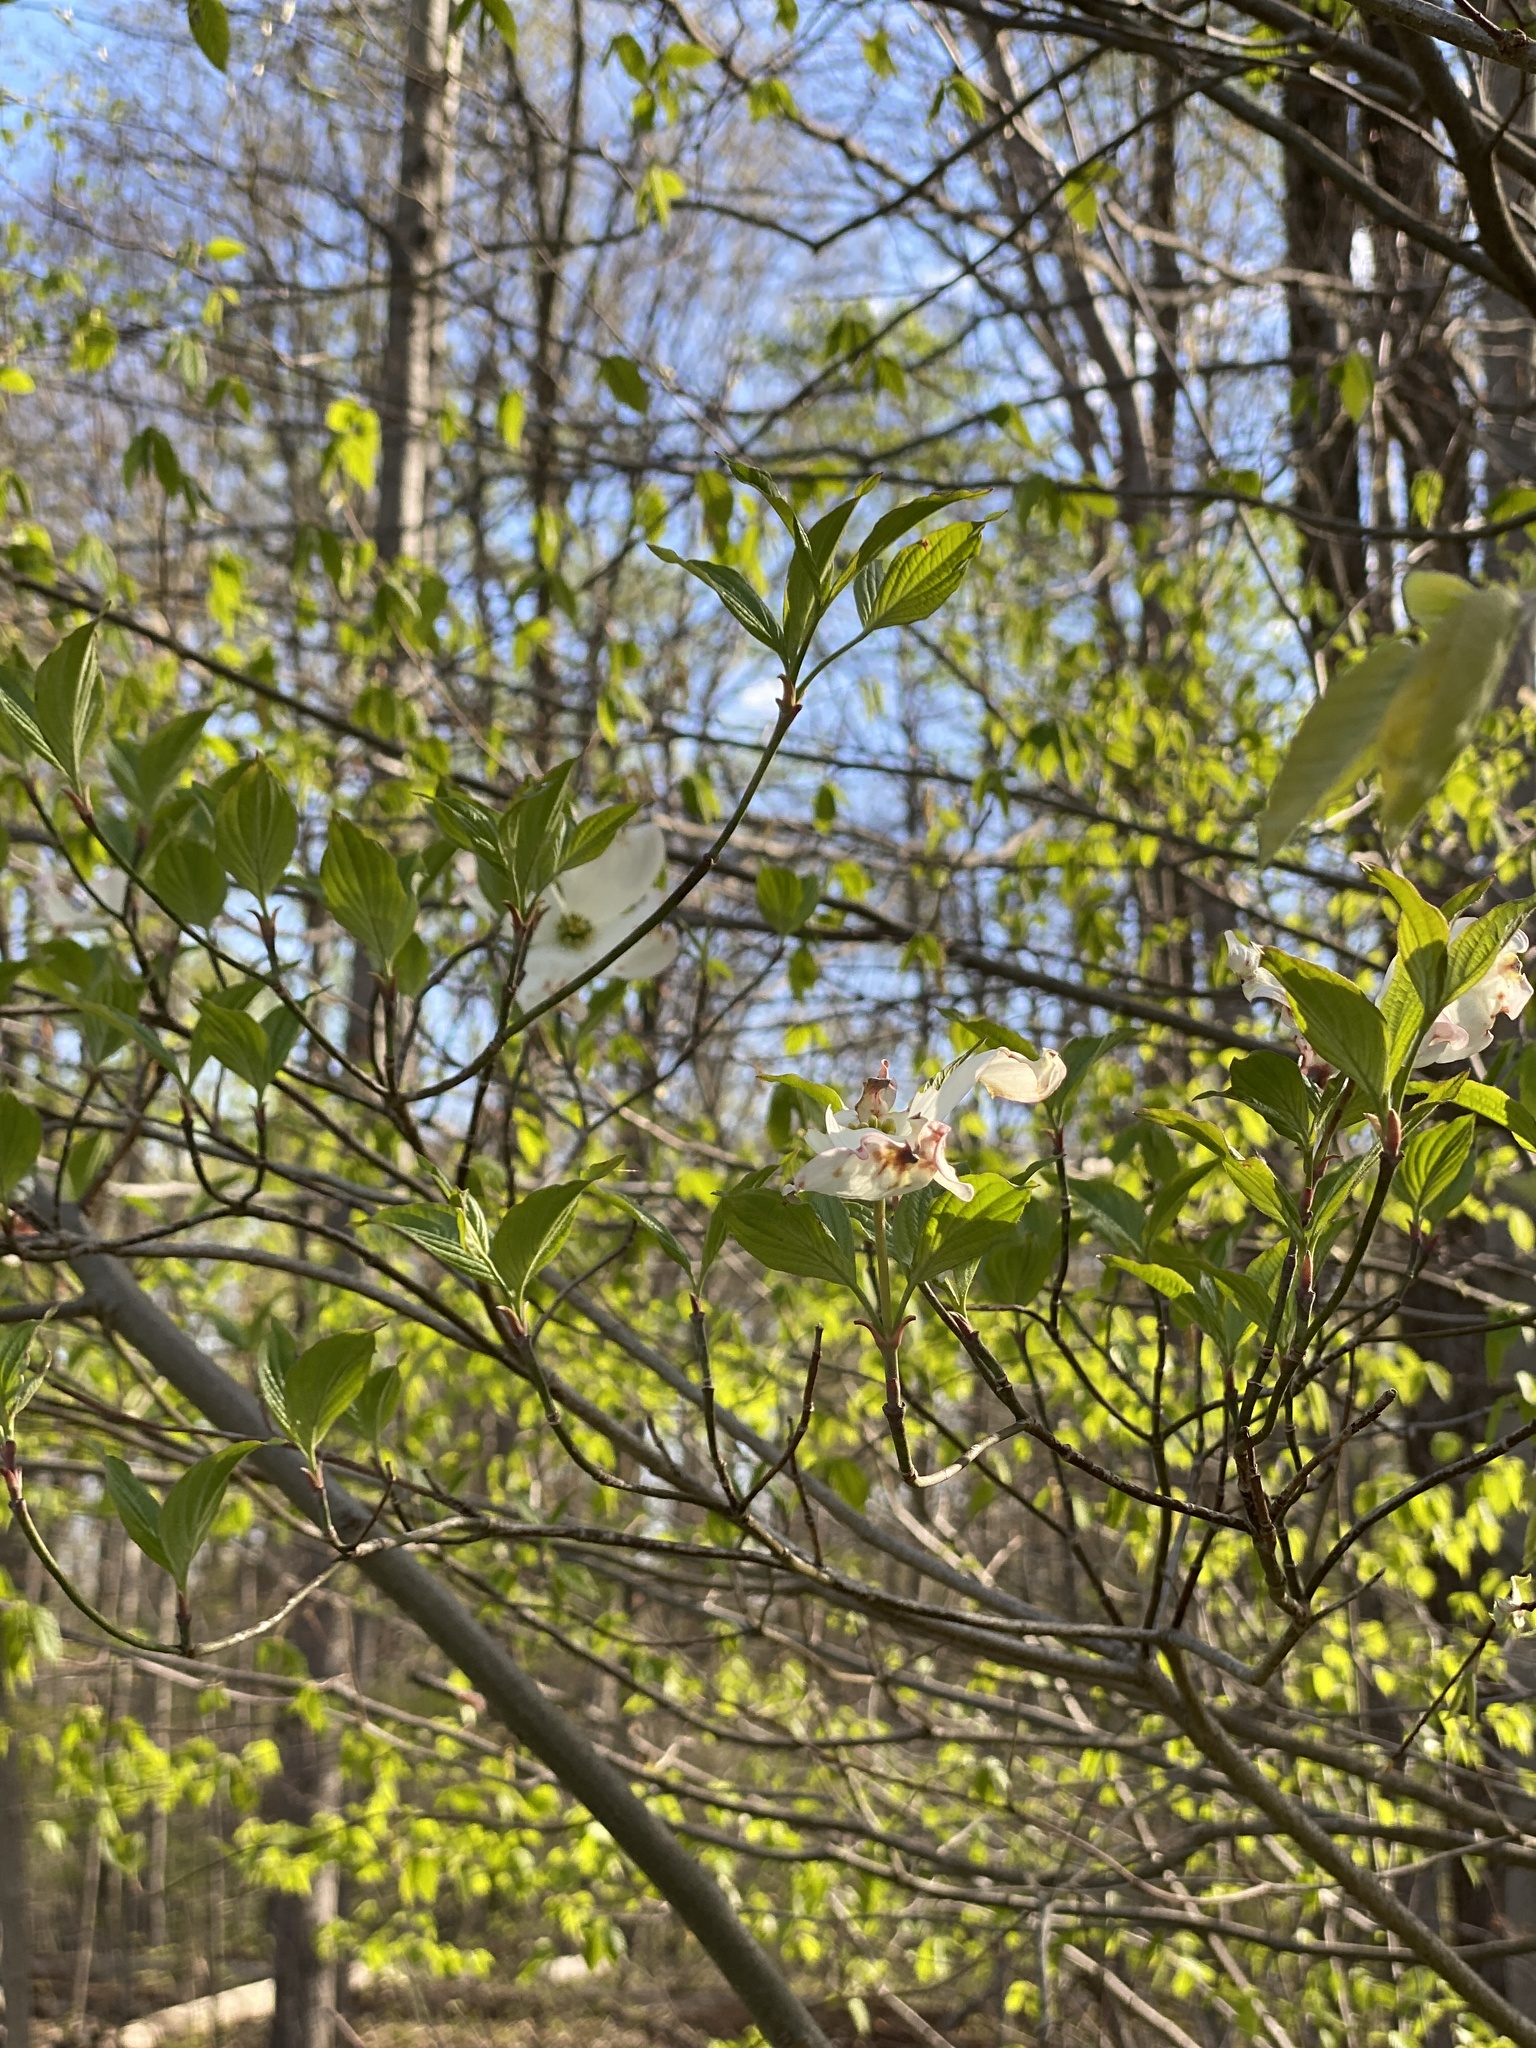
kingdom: Plantae
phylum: Tracheophyta
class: Magnoliopsida
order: Cornales
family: Cornaceae
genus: Cornus
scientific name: Cornus florida
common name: Flowering dogwood
